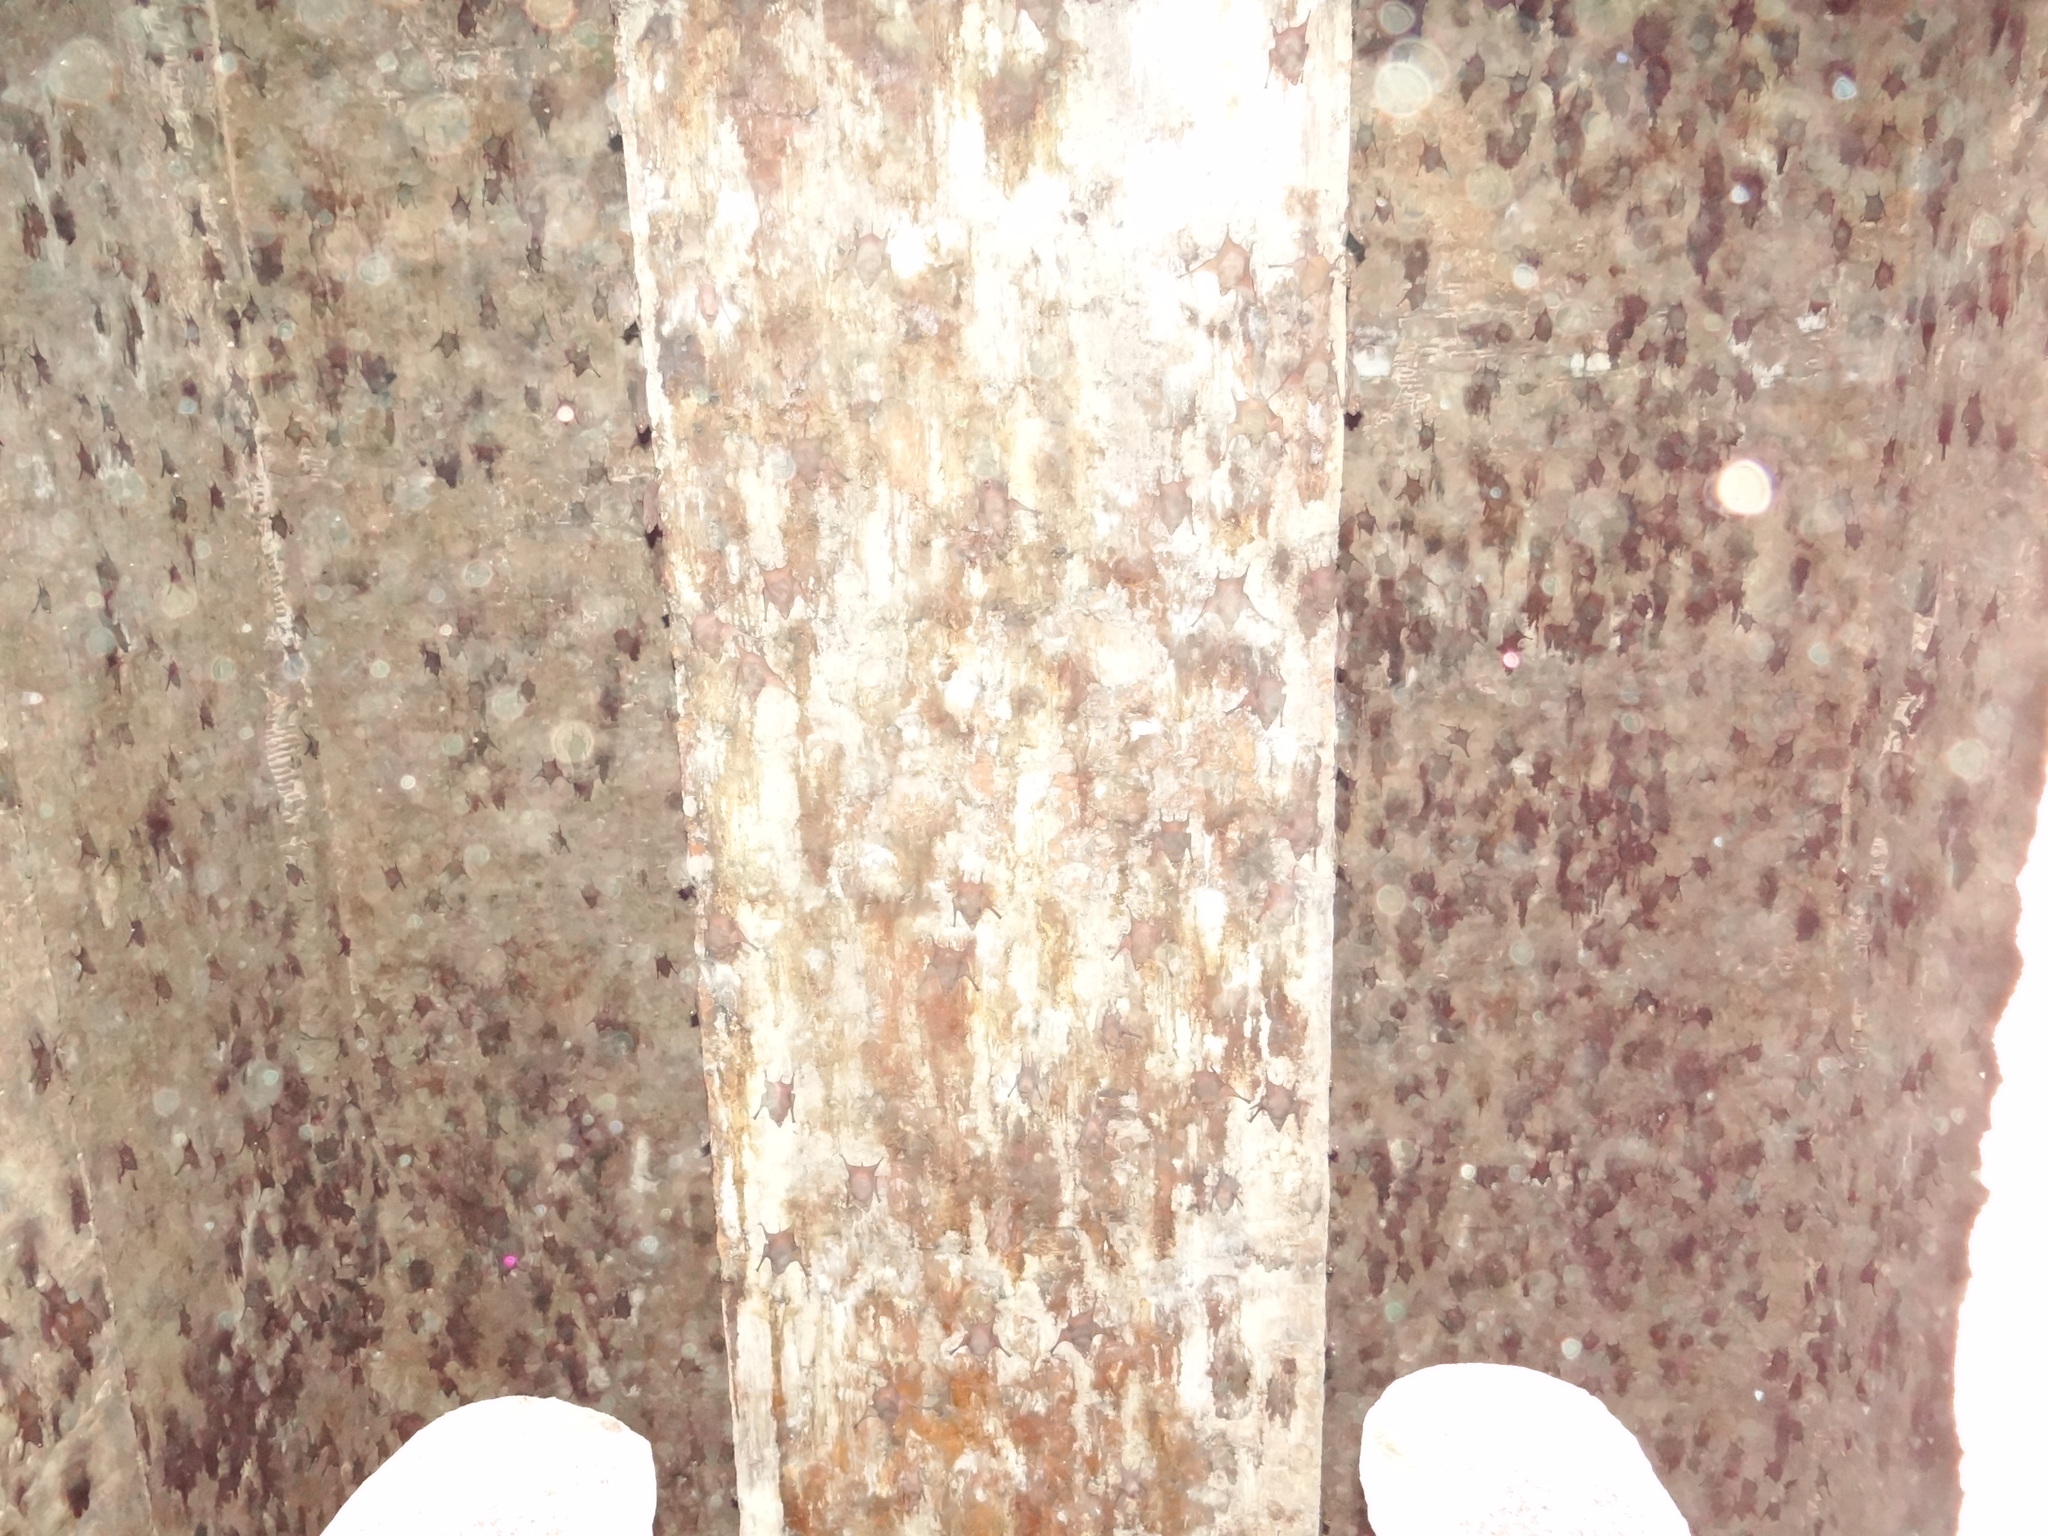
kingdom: Animalia
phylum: Chordata
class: Mammalia
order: Chiroptera
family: Emballonuridae
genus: Taphozous
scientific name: Taphozous nudiventris
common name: Naked-rumped tomb bat
